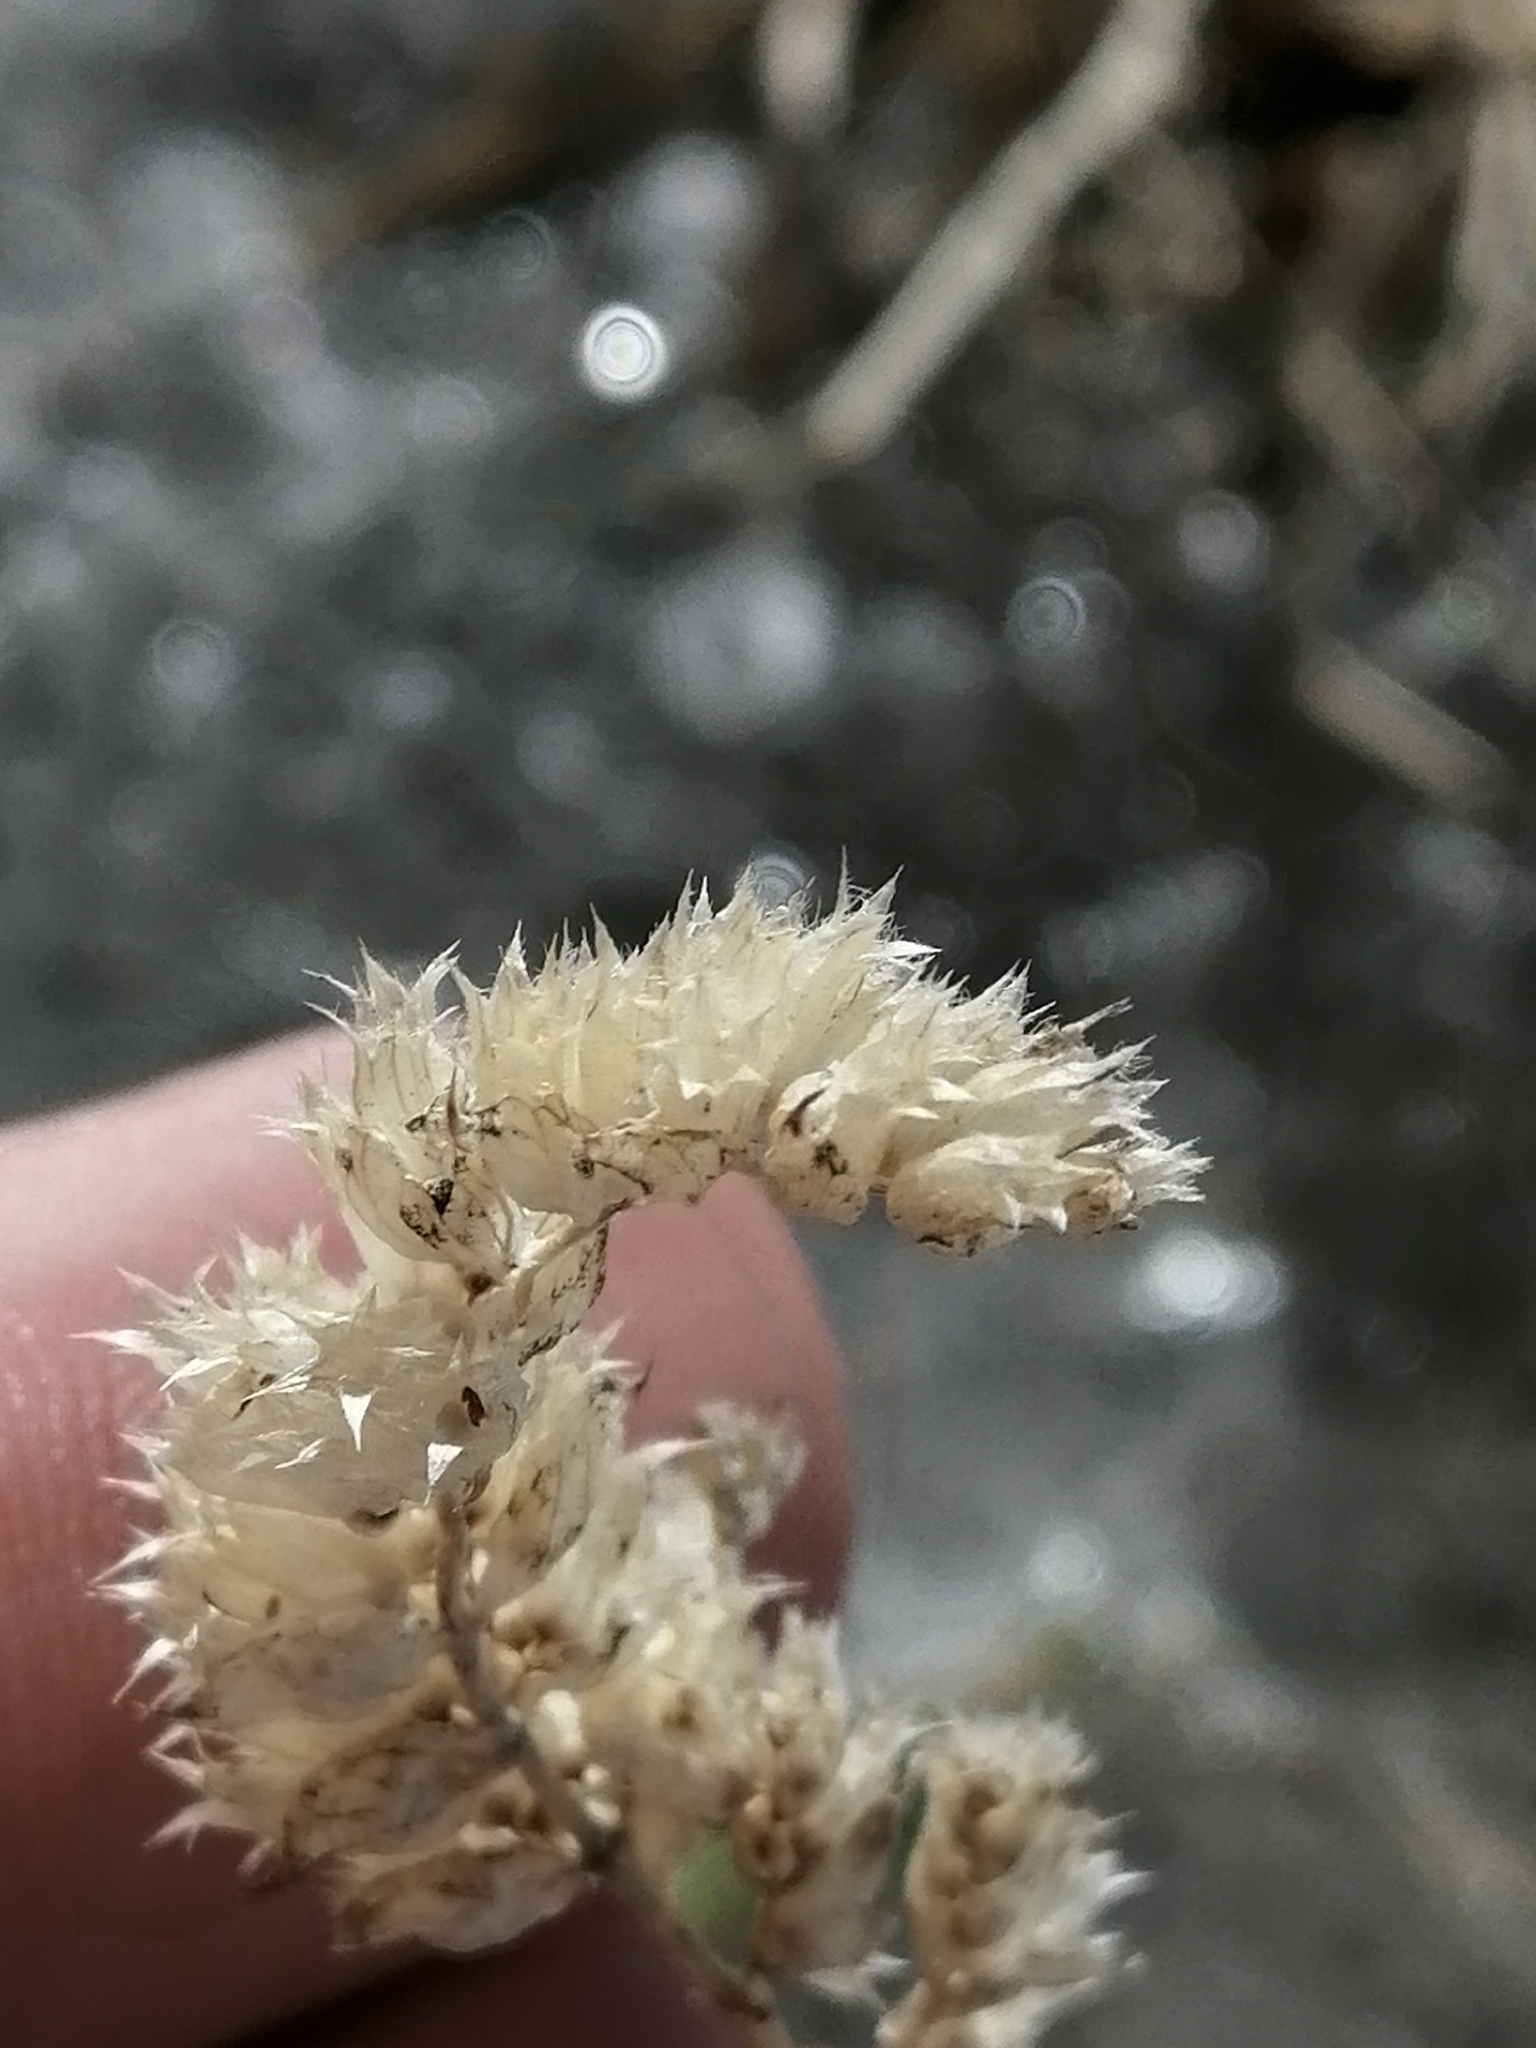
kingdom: Plantae
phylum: Tracheophyta
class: Magnoliopsida
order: Ranunculales
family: Ranunculaceae
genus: Actaea
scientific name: Actaea cimicifuga
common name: Chinese cimicifuga
